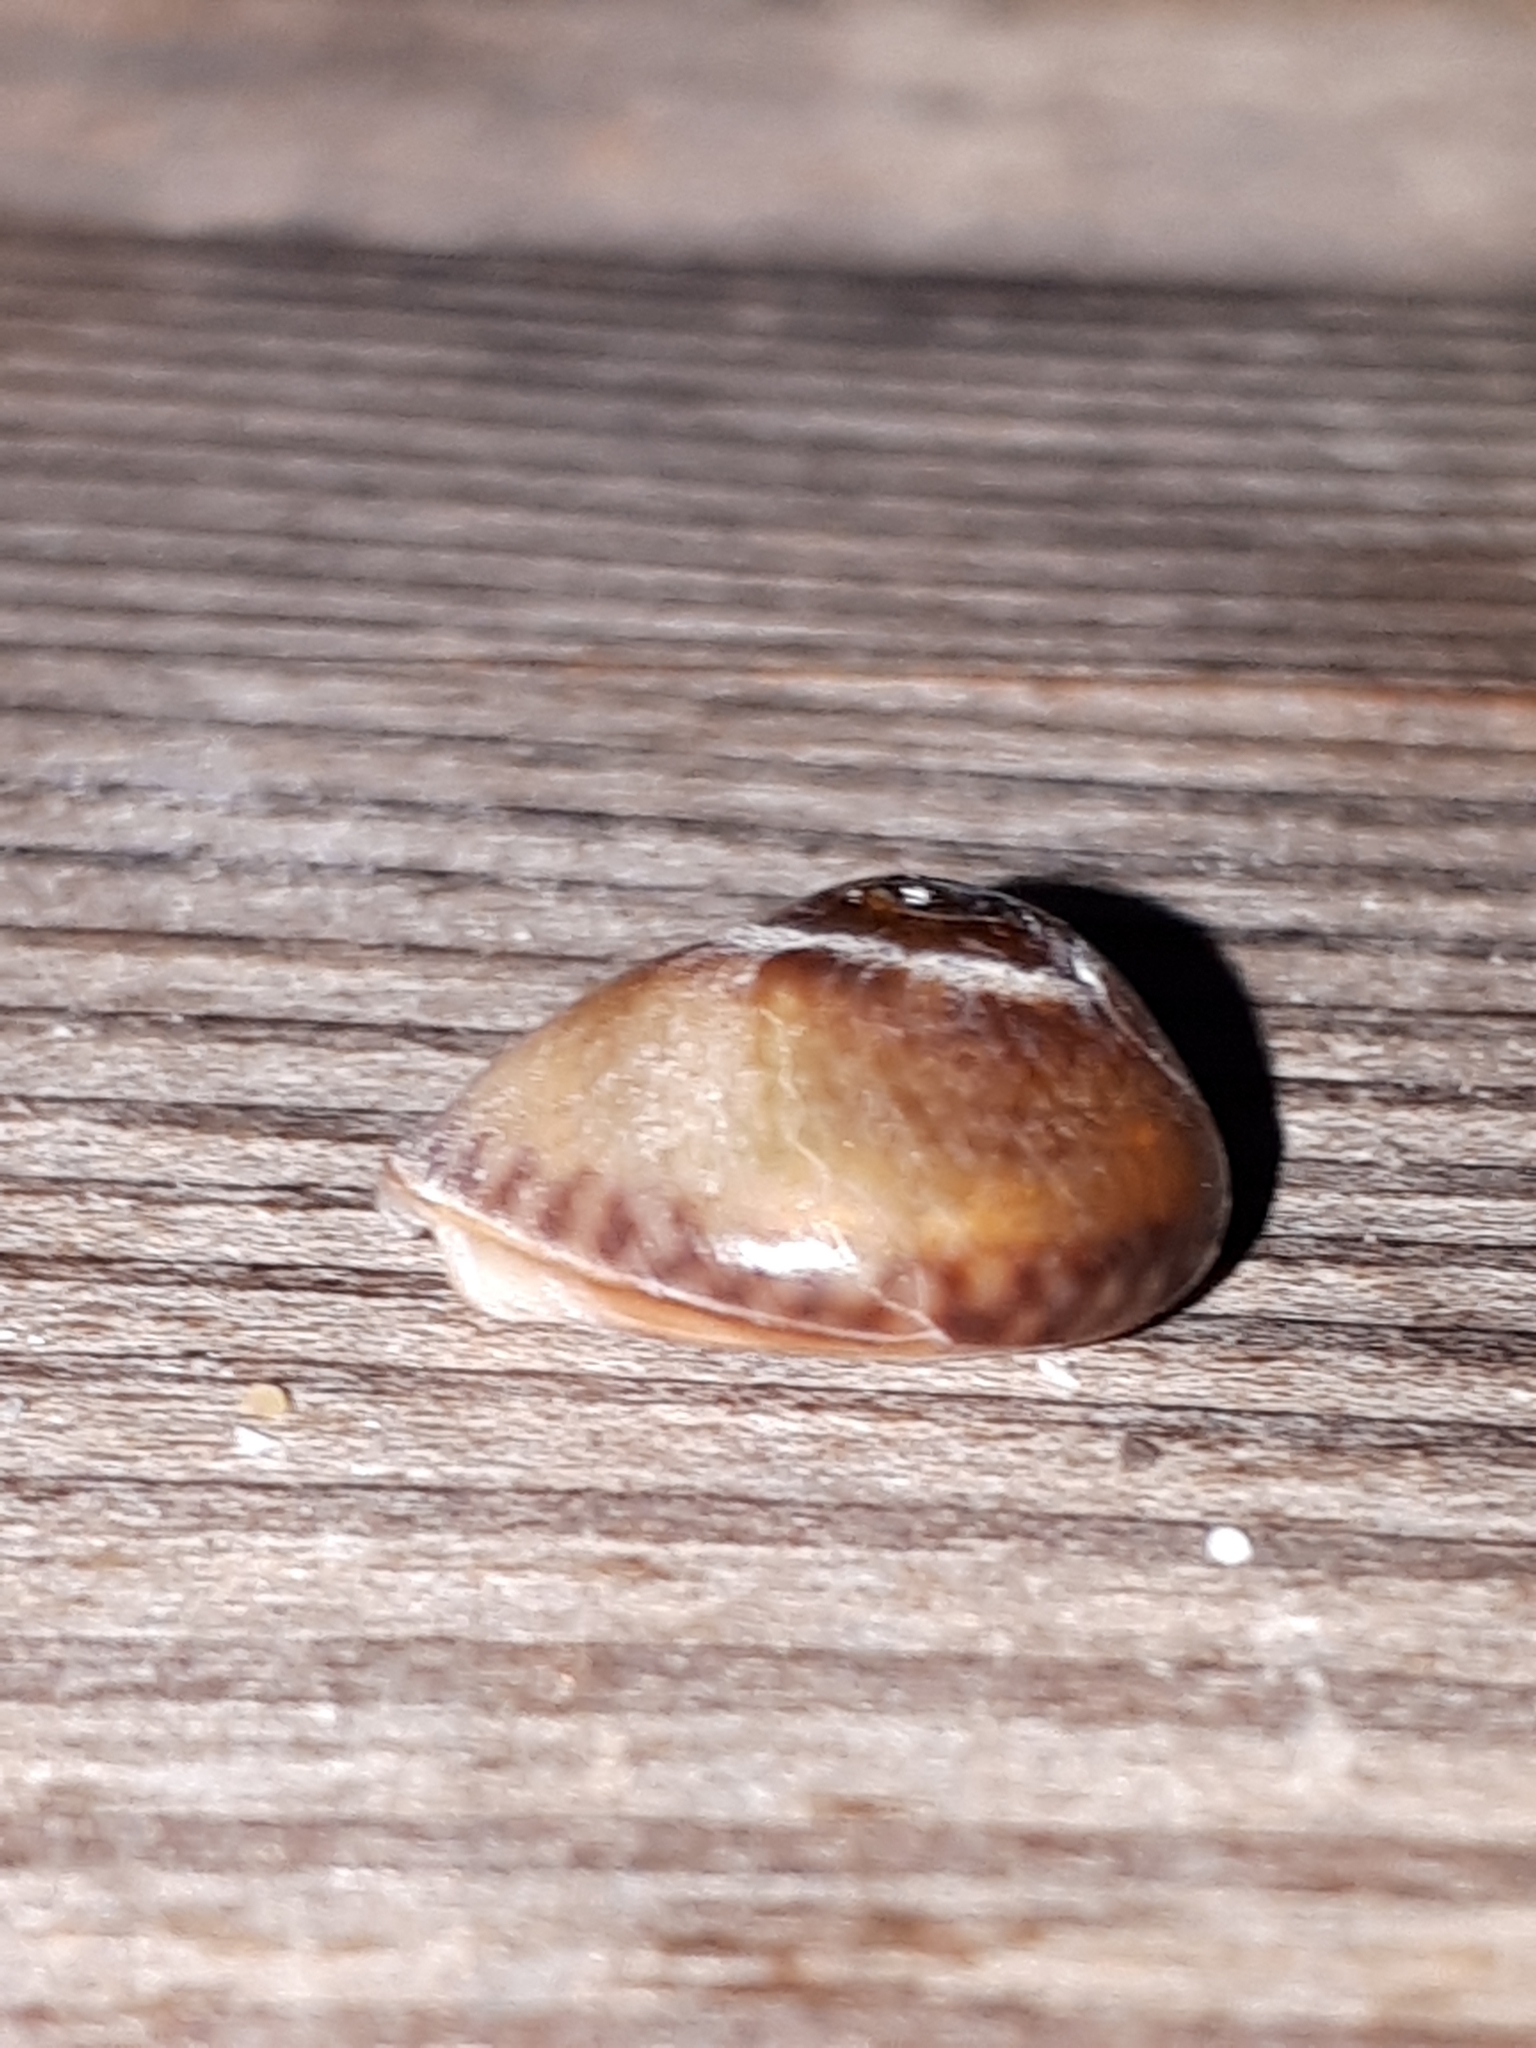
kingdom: Animalia
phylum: Mollusca
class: Gastropoda
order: Neogastropoda
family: Nassariidae
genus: Tritia
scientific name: Tritia neritea
